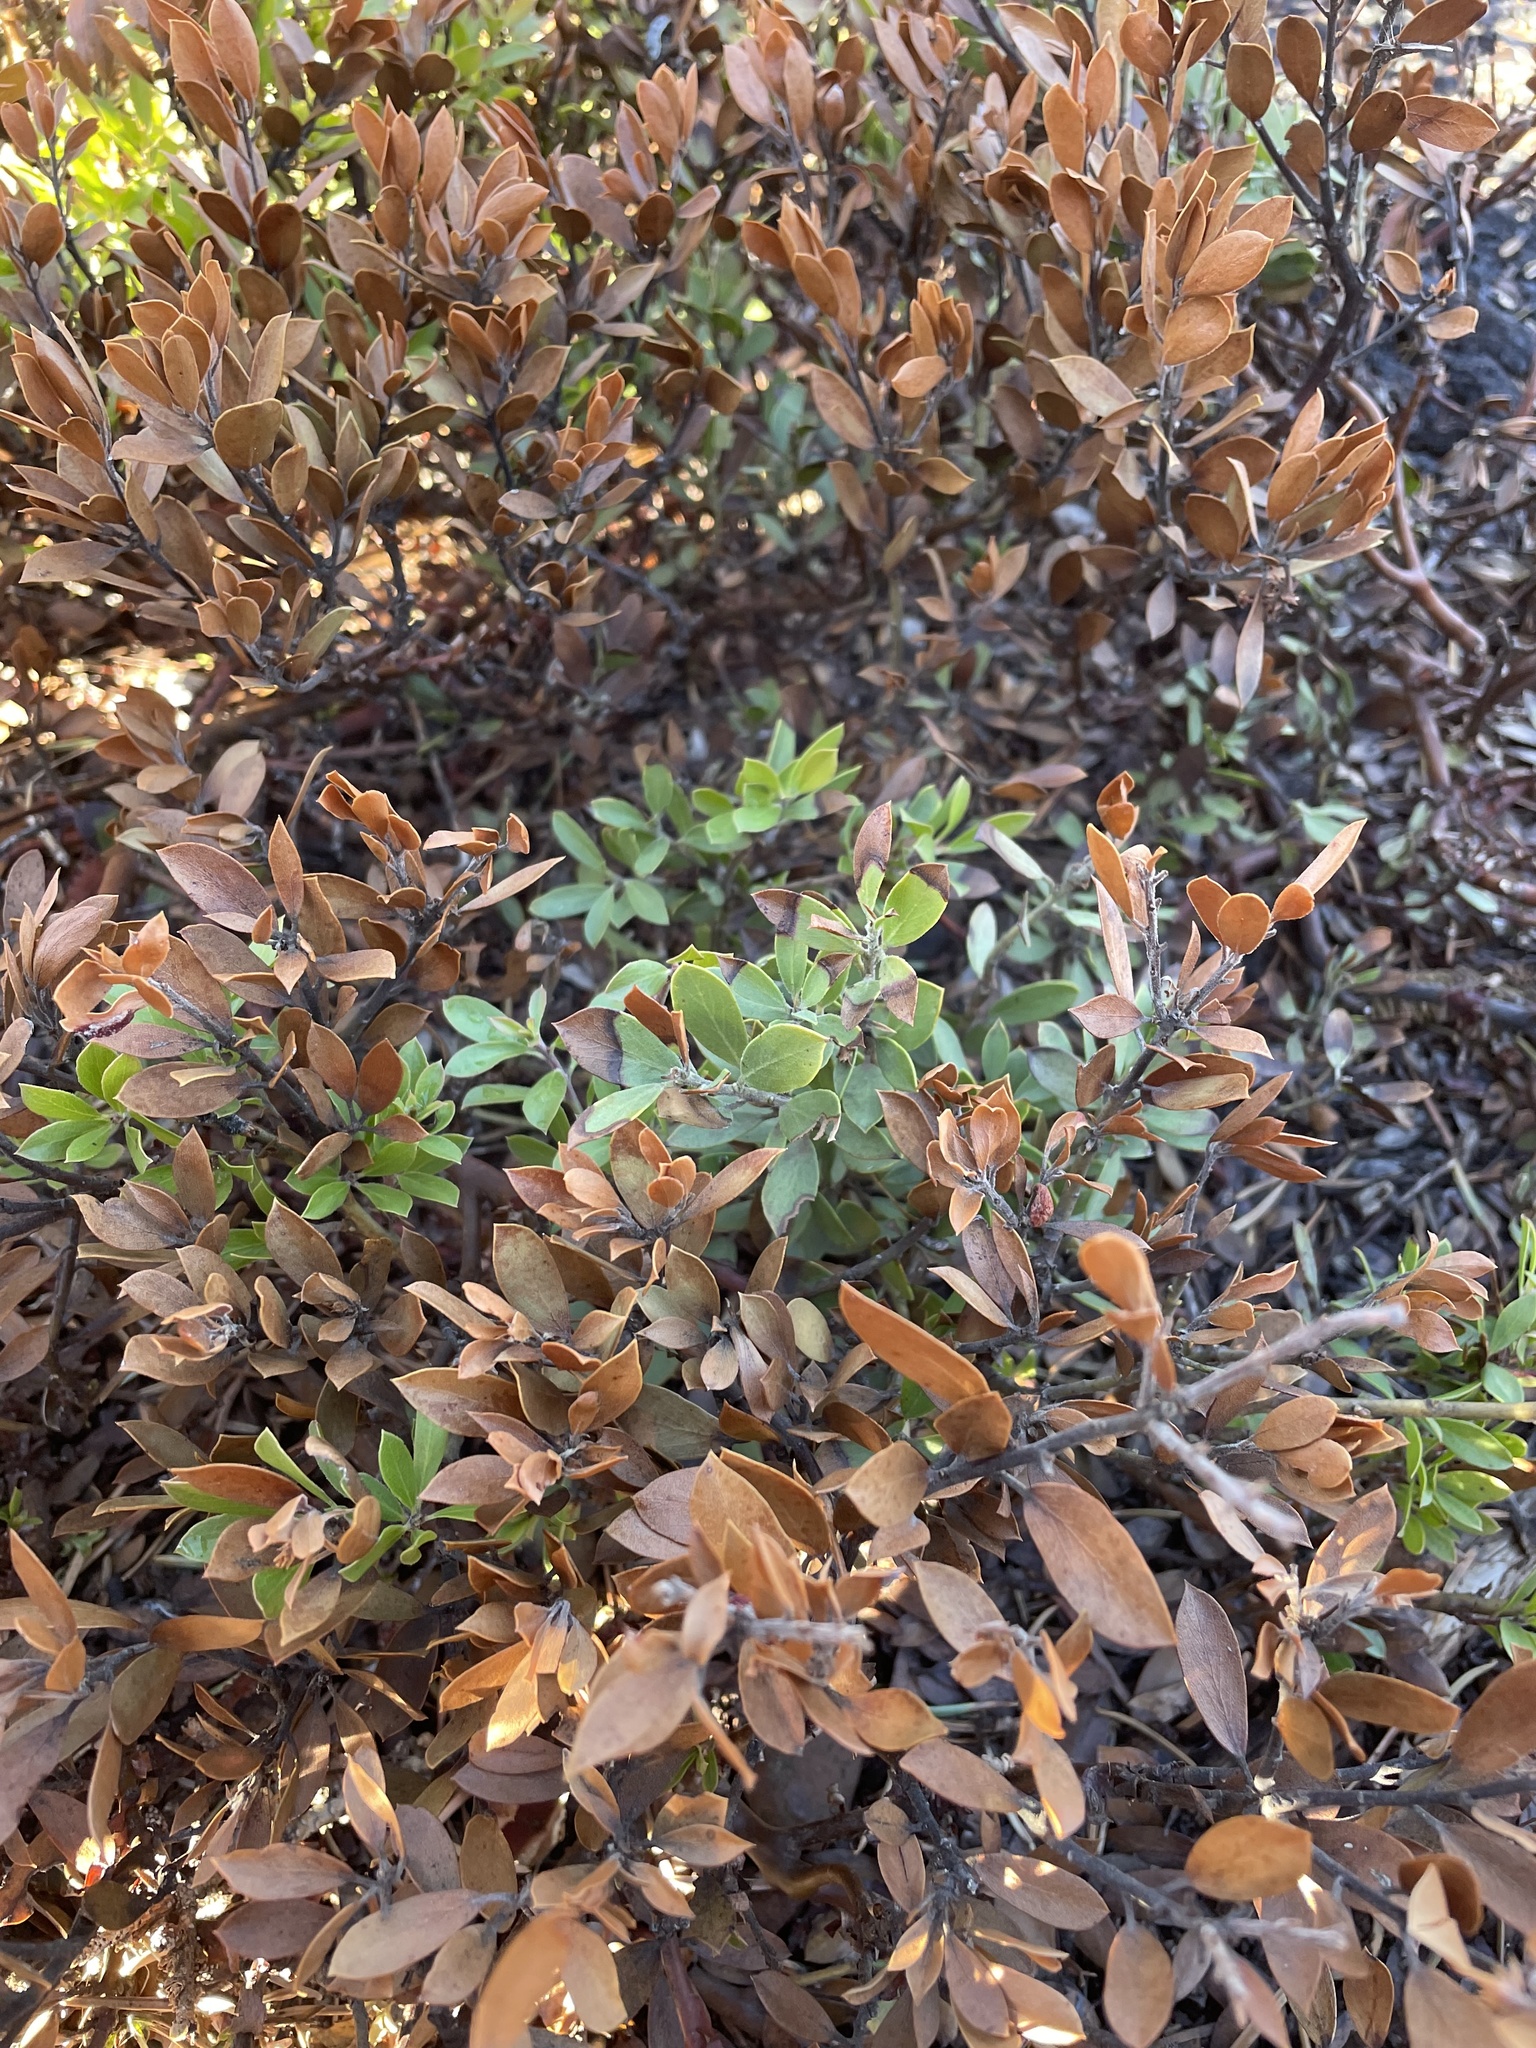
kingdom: Plantae
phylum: Tracheophyta
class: Magnoliopsida
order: Ericales
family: Ericaceae
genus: Arctostaphylos
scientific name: Arctostaphylos nevadensis
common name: Pinemat manzanita
